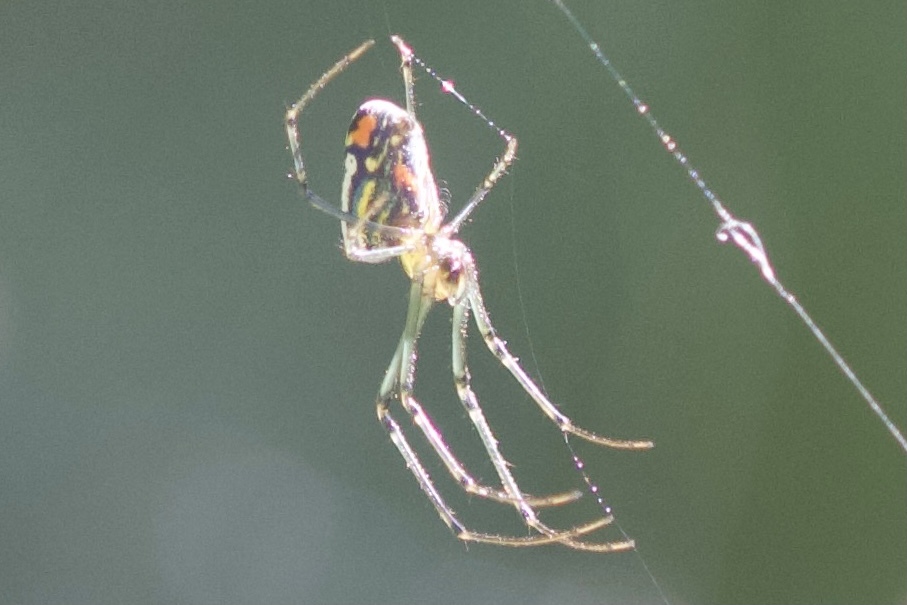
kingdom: Animalia
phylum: Arthropoda
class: Arachnida
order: Araneae
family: Tetragnathidae
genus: Leucauge
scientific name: Leucauge argyrobapta
